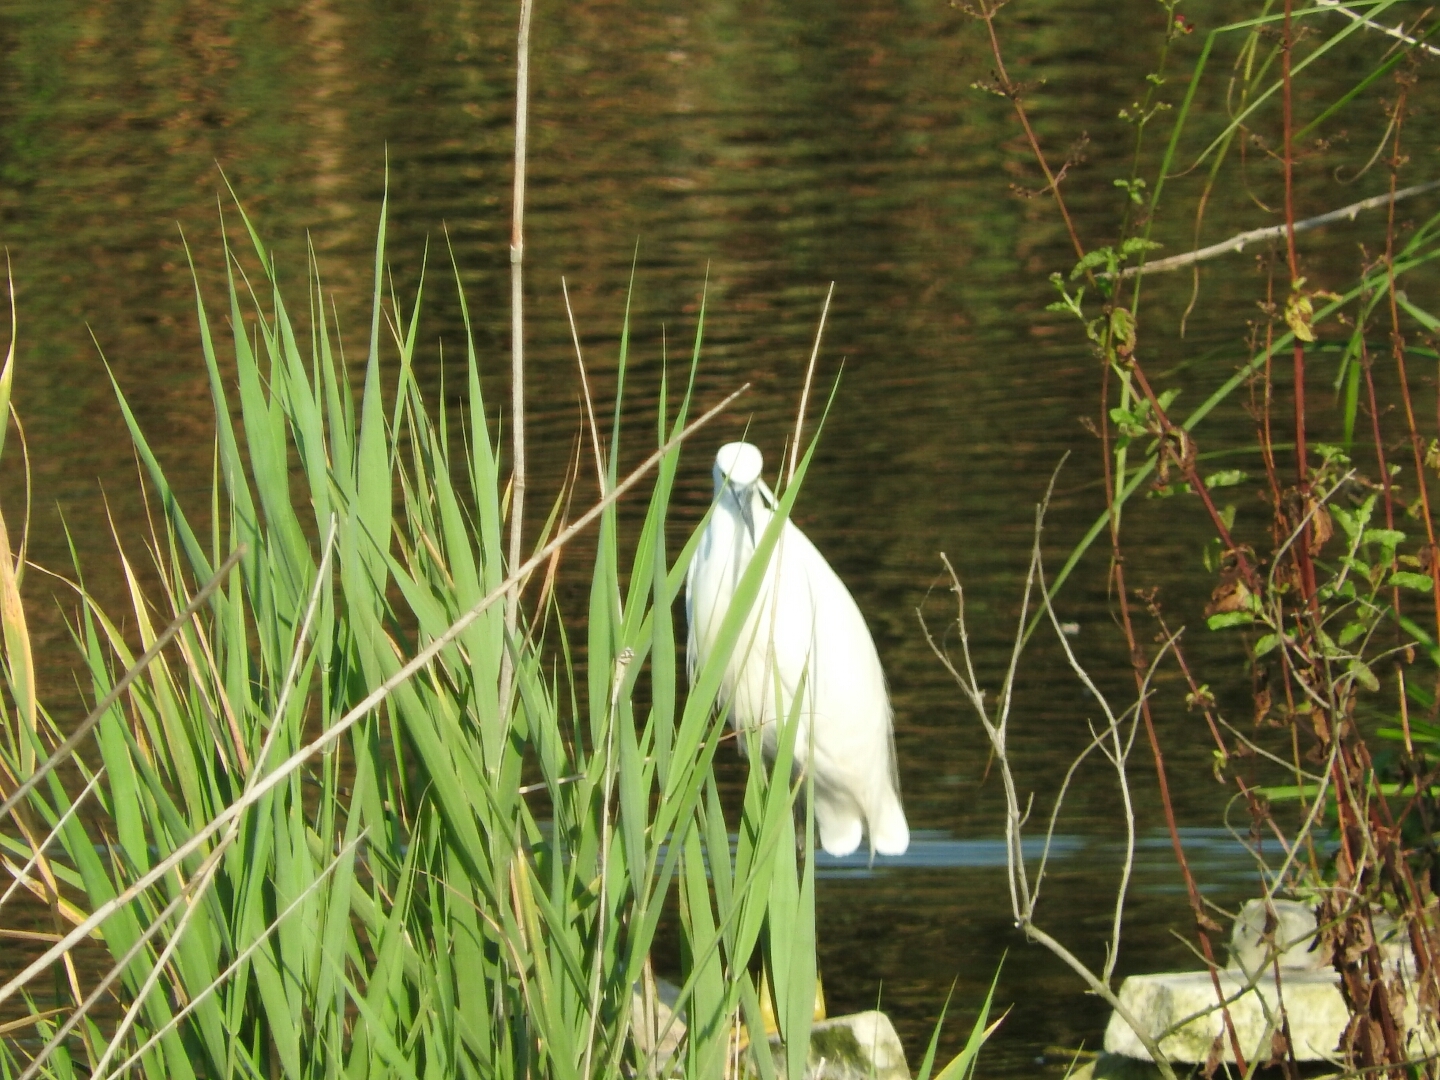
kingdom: Animalia
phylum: Chordata
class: Aves
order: Pelecaniformes
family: Ardeidae
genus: Egretta
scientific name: Egretta garzetta
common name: Little egret
